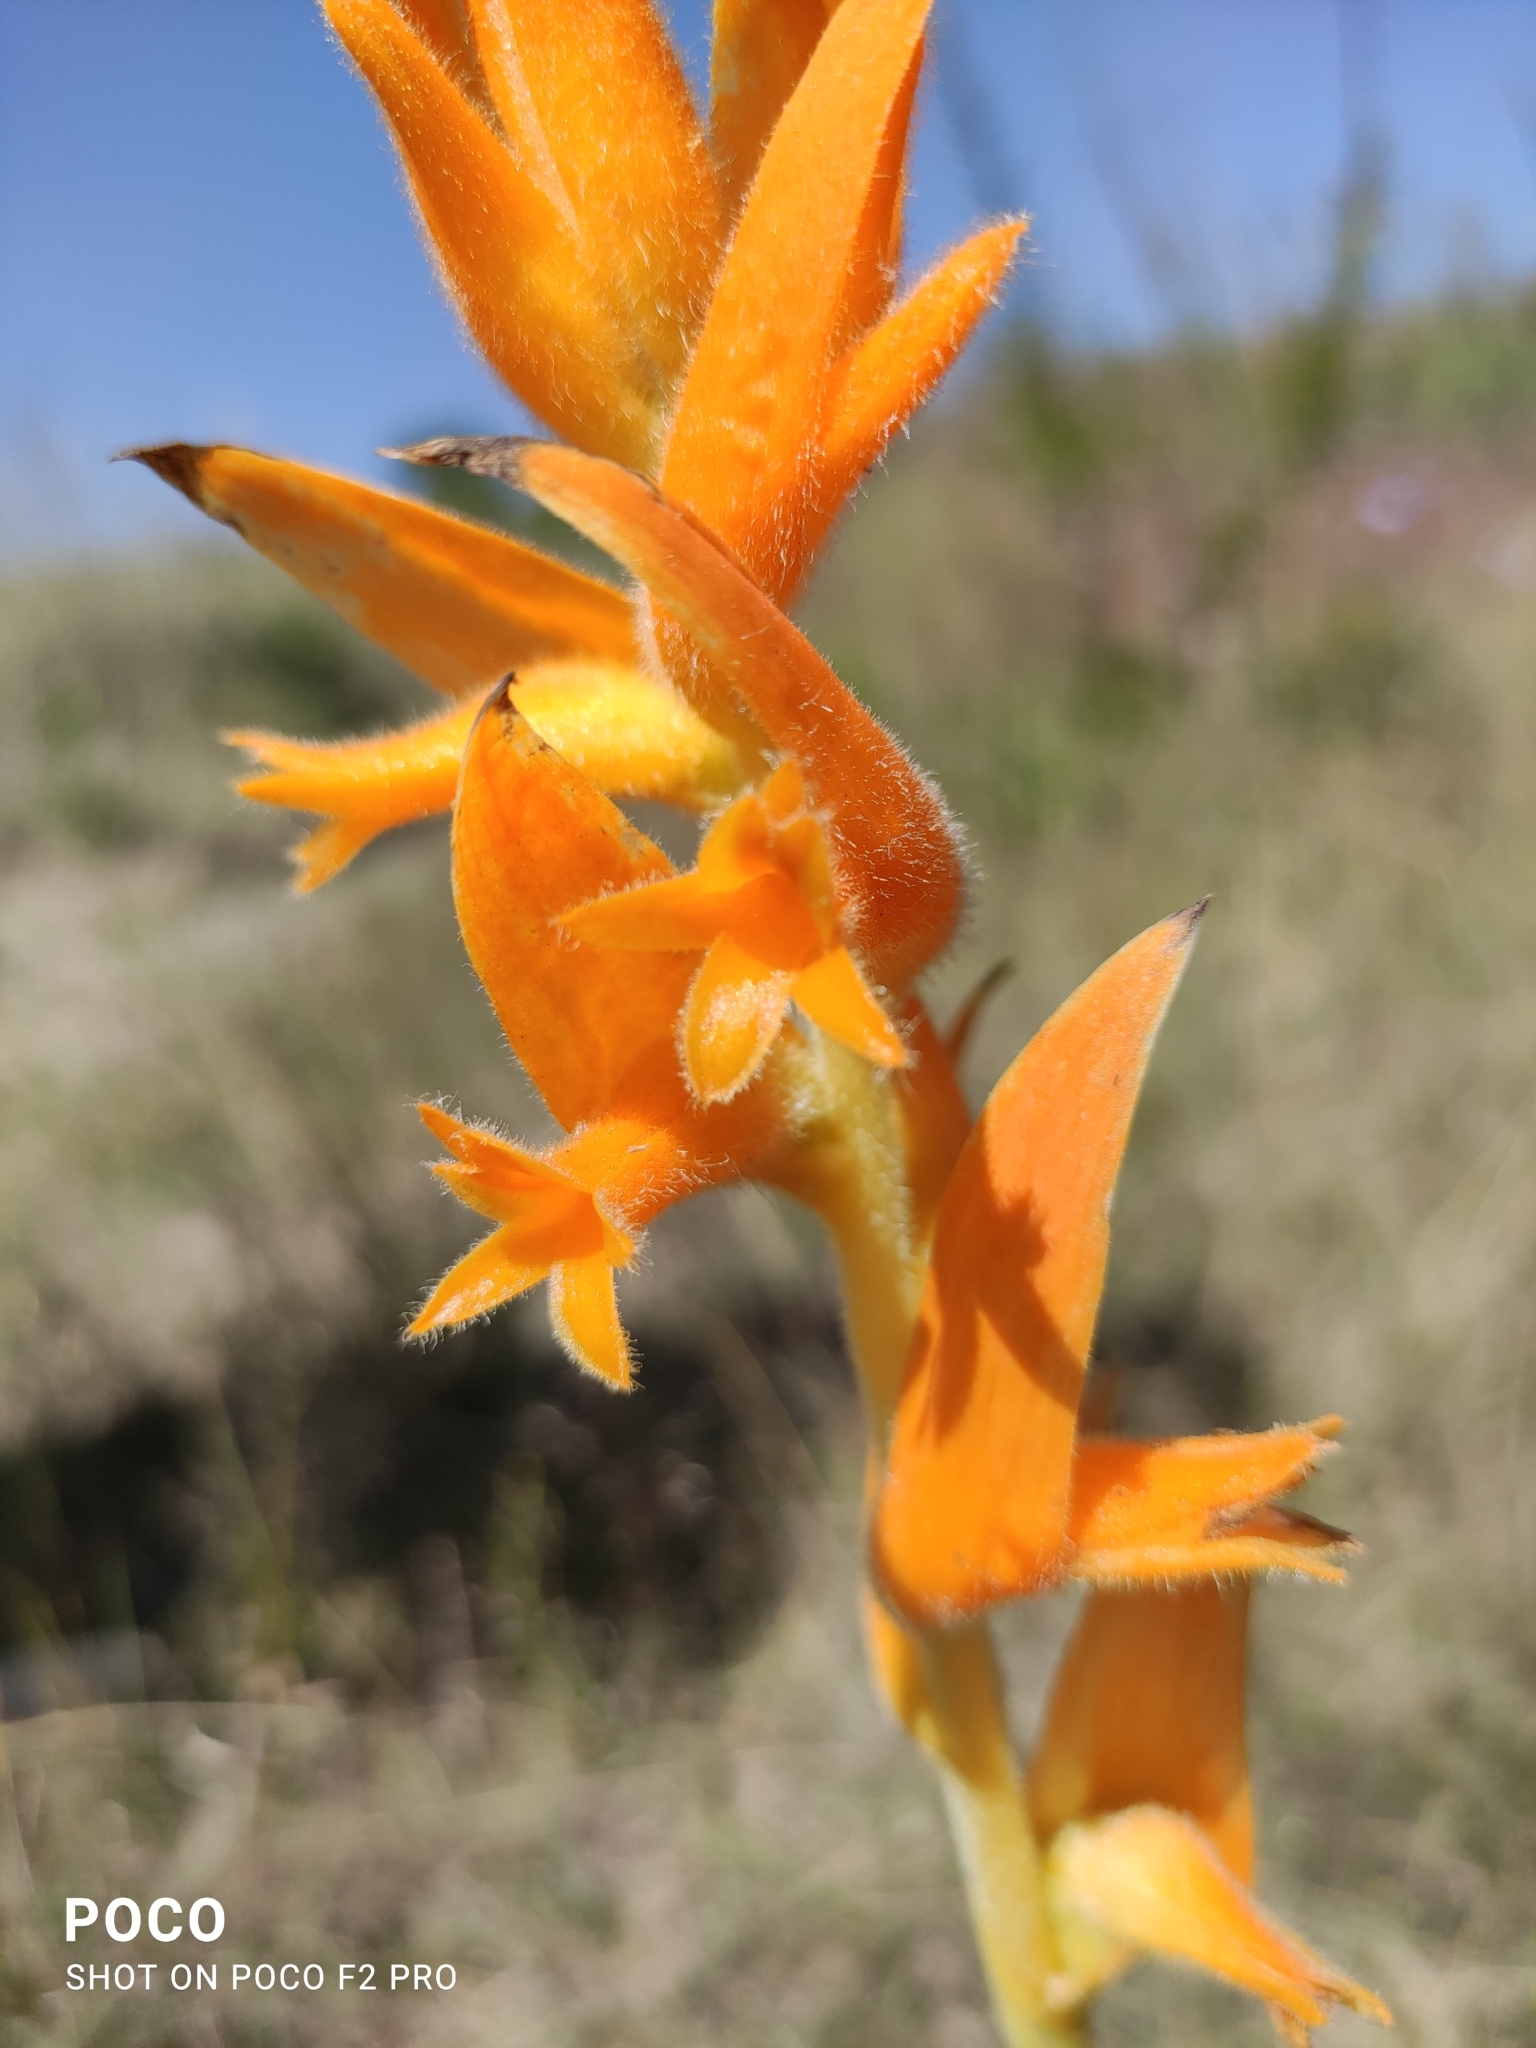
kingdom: Plantae
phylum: Tracheophyta
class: Liliopsida
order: Asparagales
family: Orchidaceae
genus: Dichromanthus
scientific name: Dichromanthus aurantiacus
